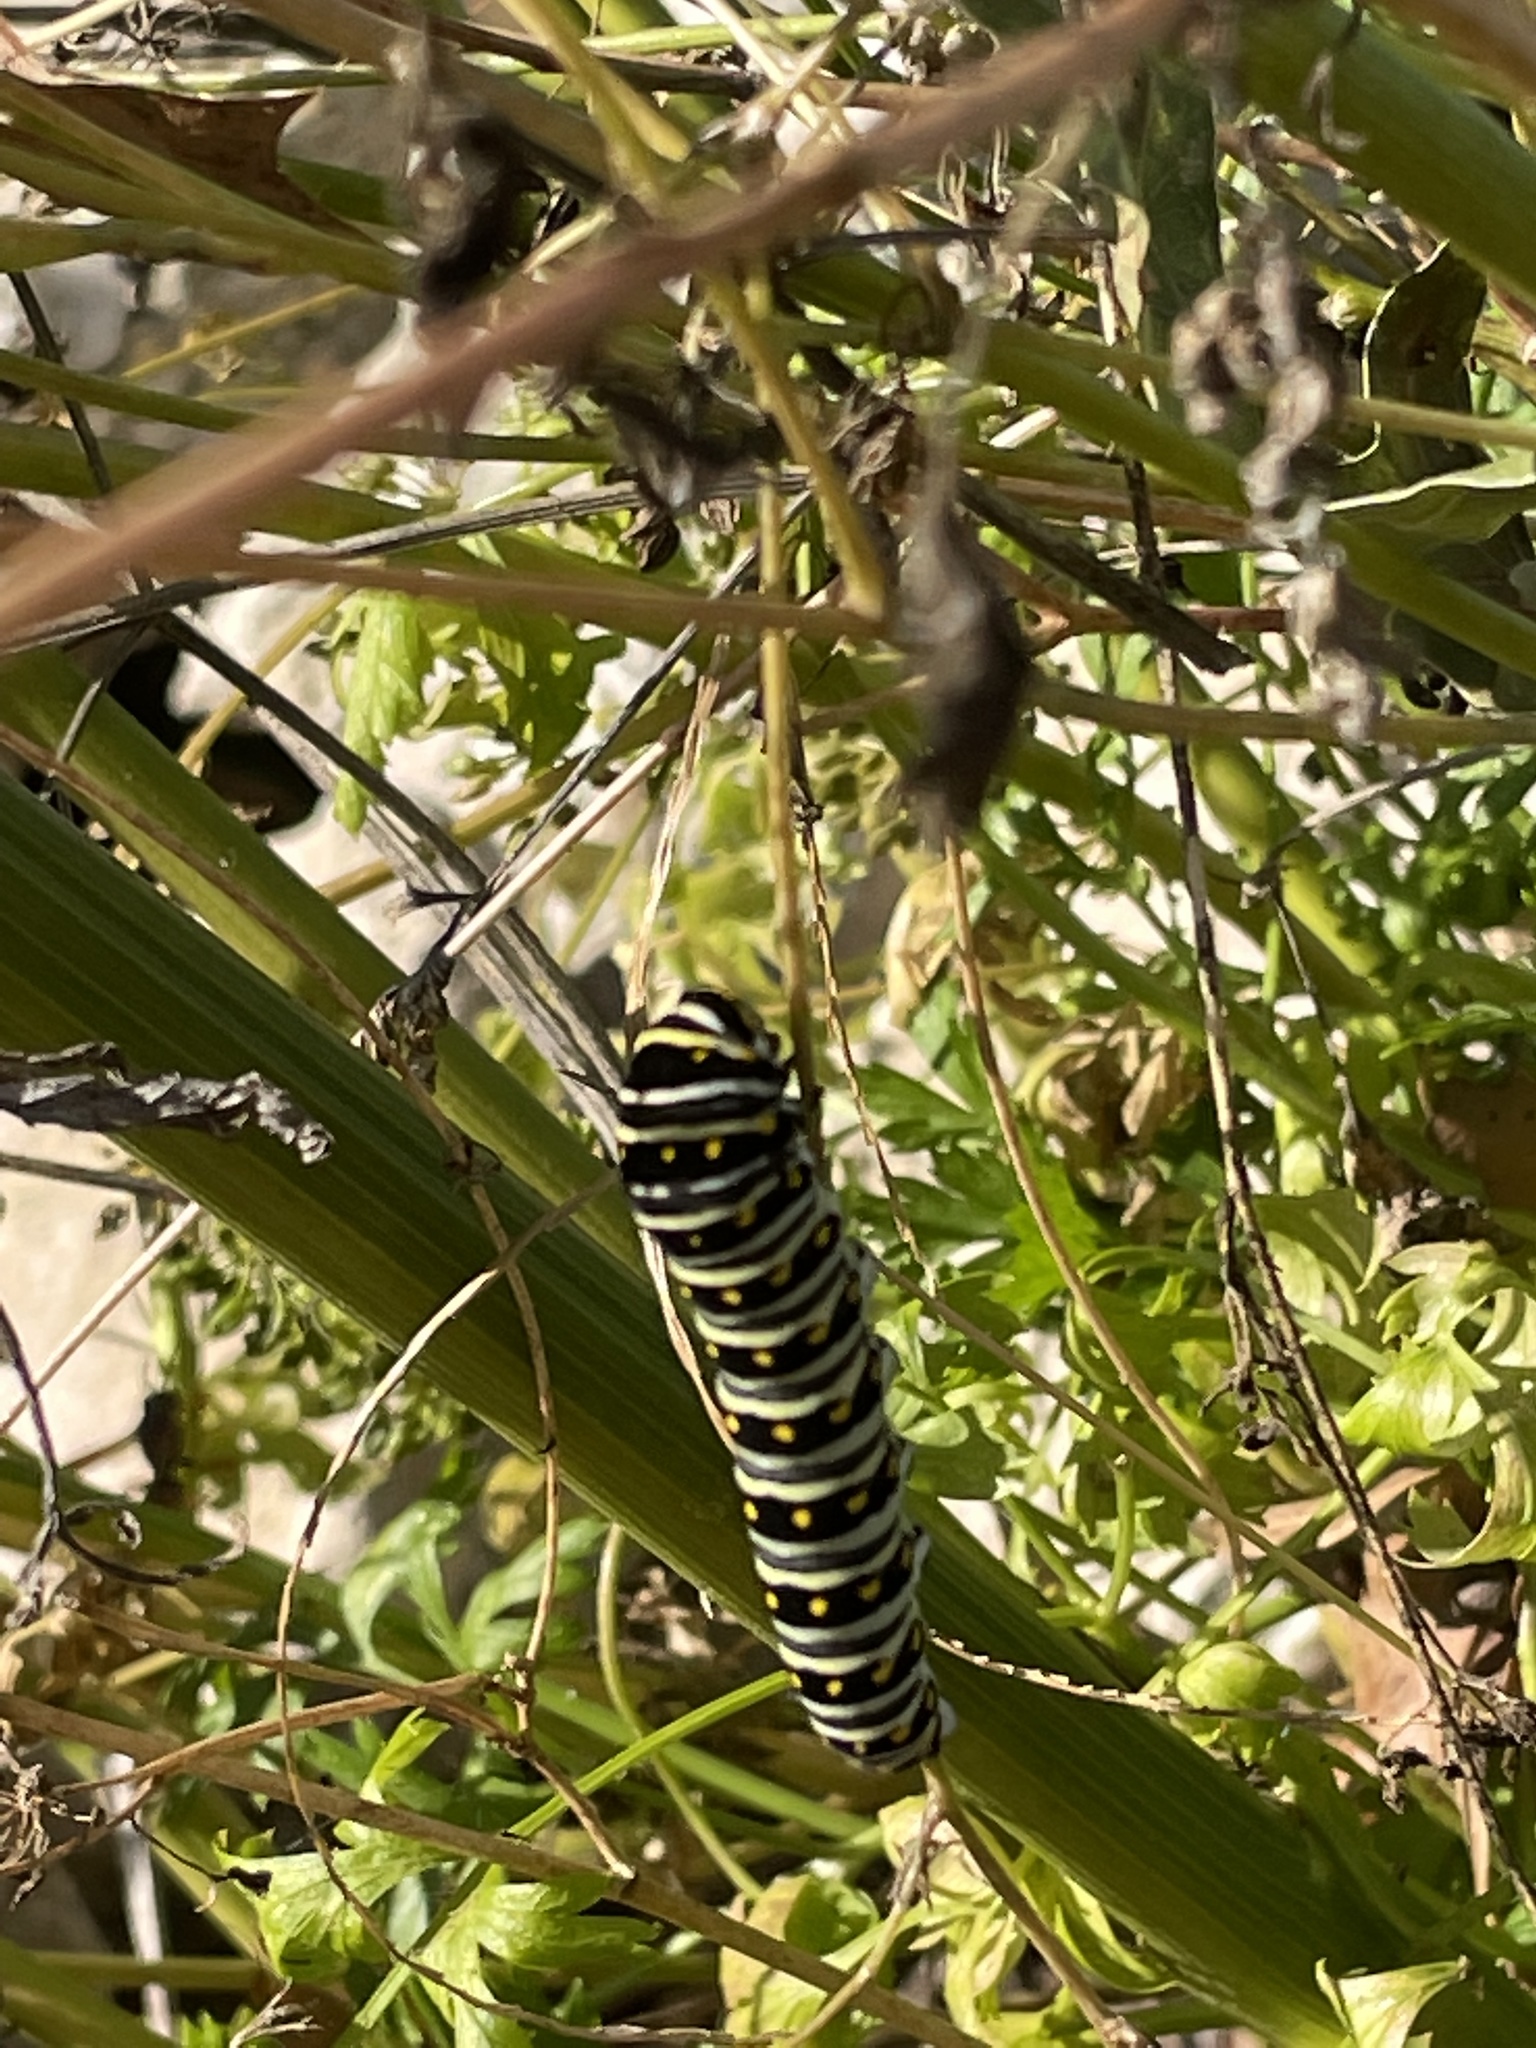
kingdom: Animalia
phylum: Arthropoda
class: Insecta
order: Lepidoptera
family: Papilionidae
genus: Papilio
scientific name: Papilio polyxenes
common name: Black swallowtail
